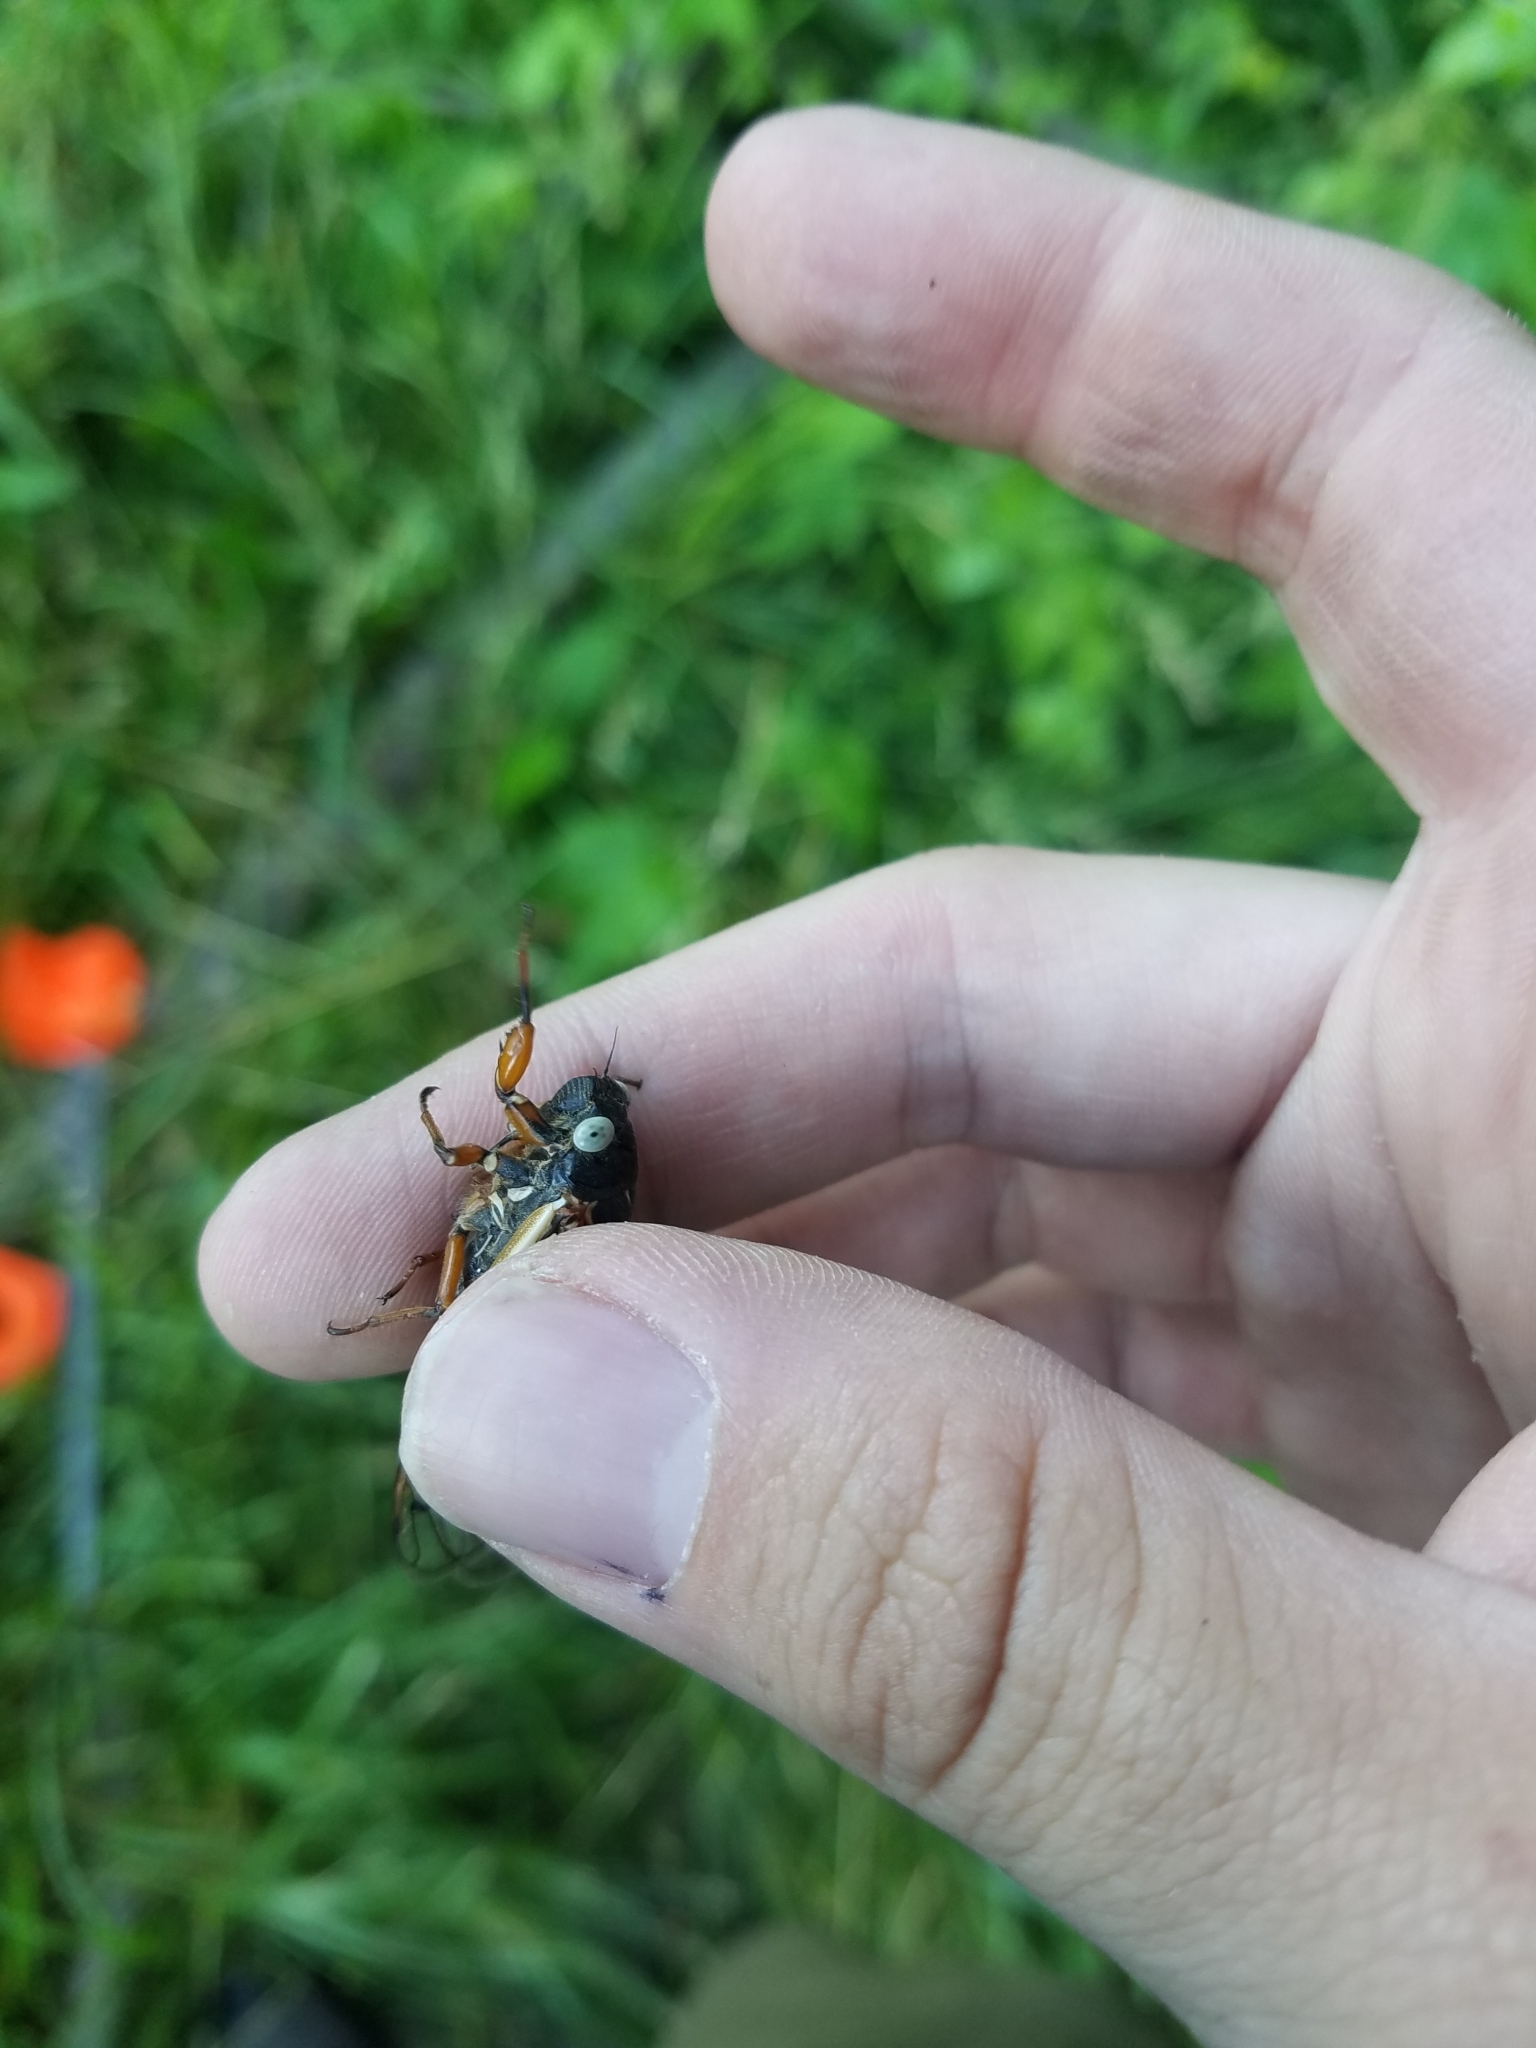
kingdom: Animalia
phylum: Arthropoda
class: Insecta
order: Hemiptera
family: Cicadidae
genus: Magicicada
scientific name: Magicicada cassini
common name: Cassin's 17-year cicada
